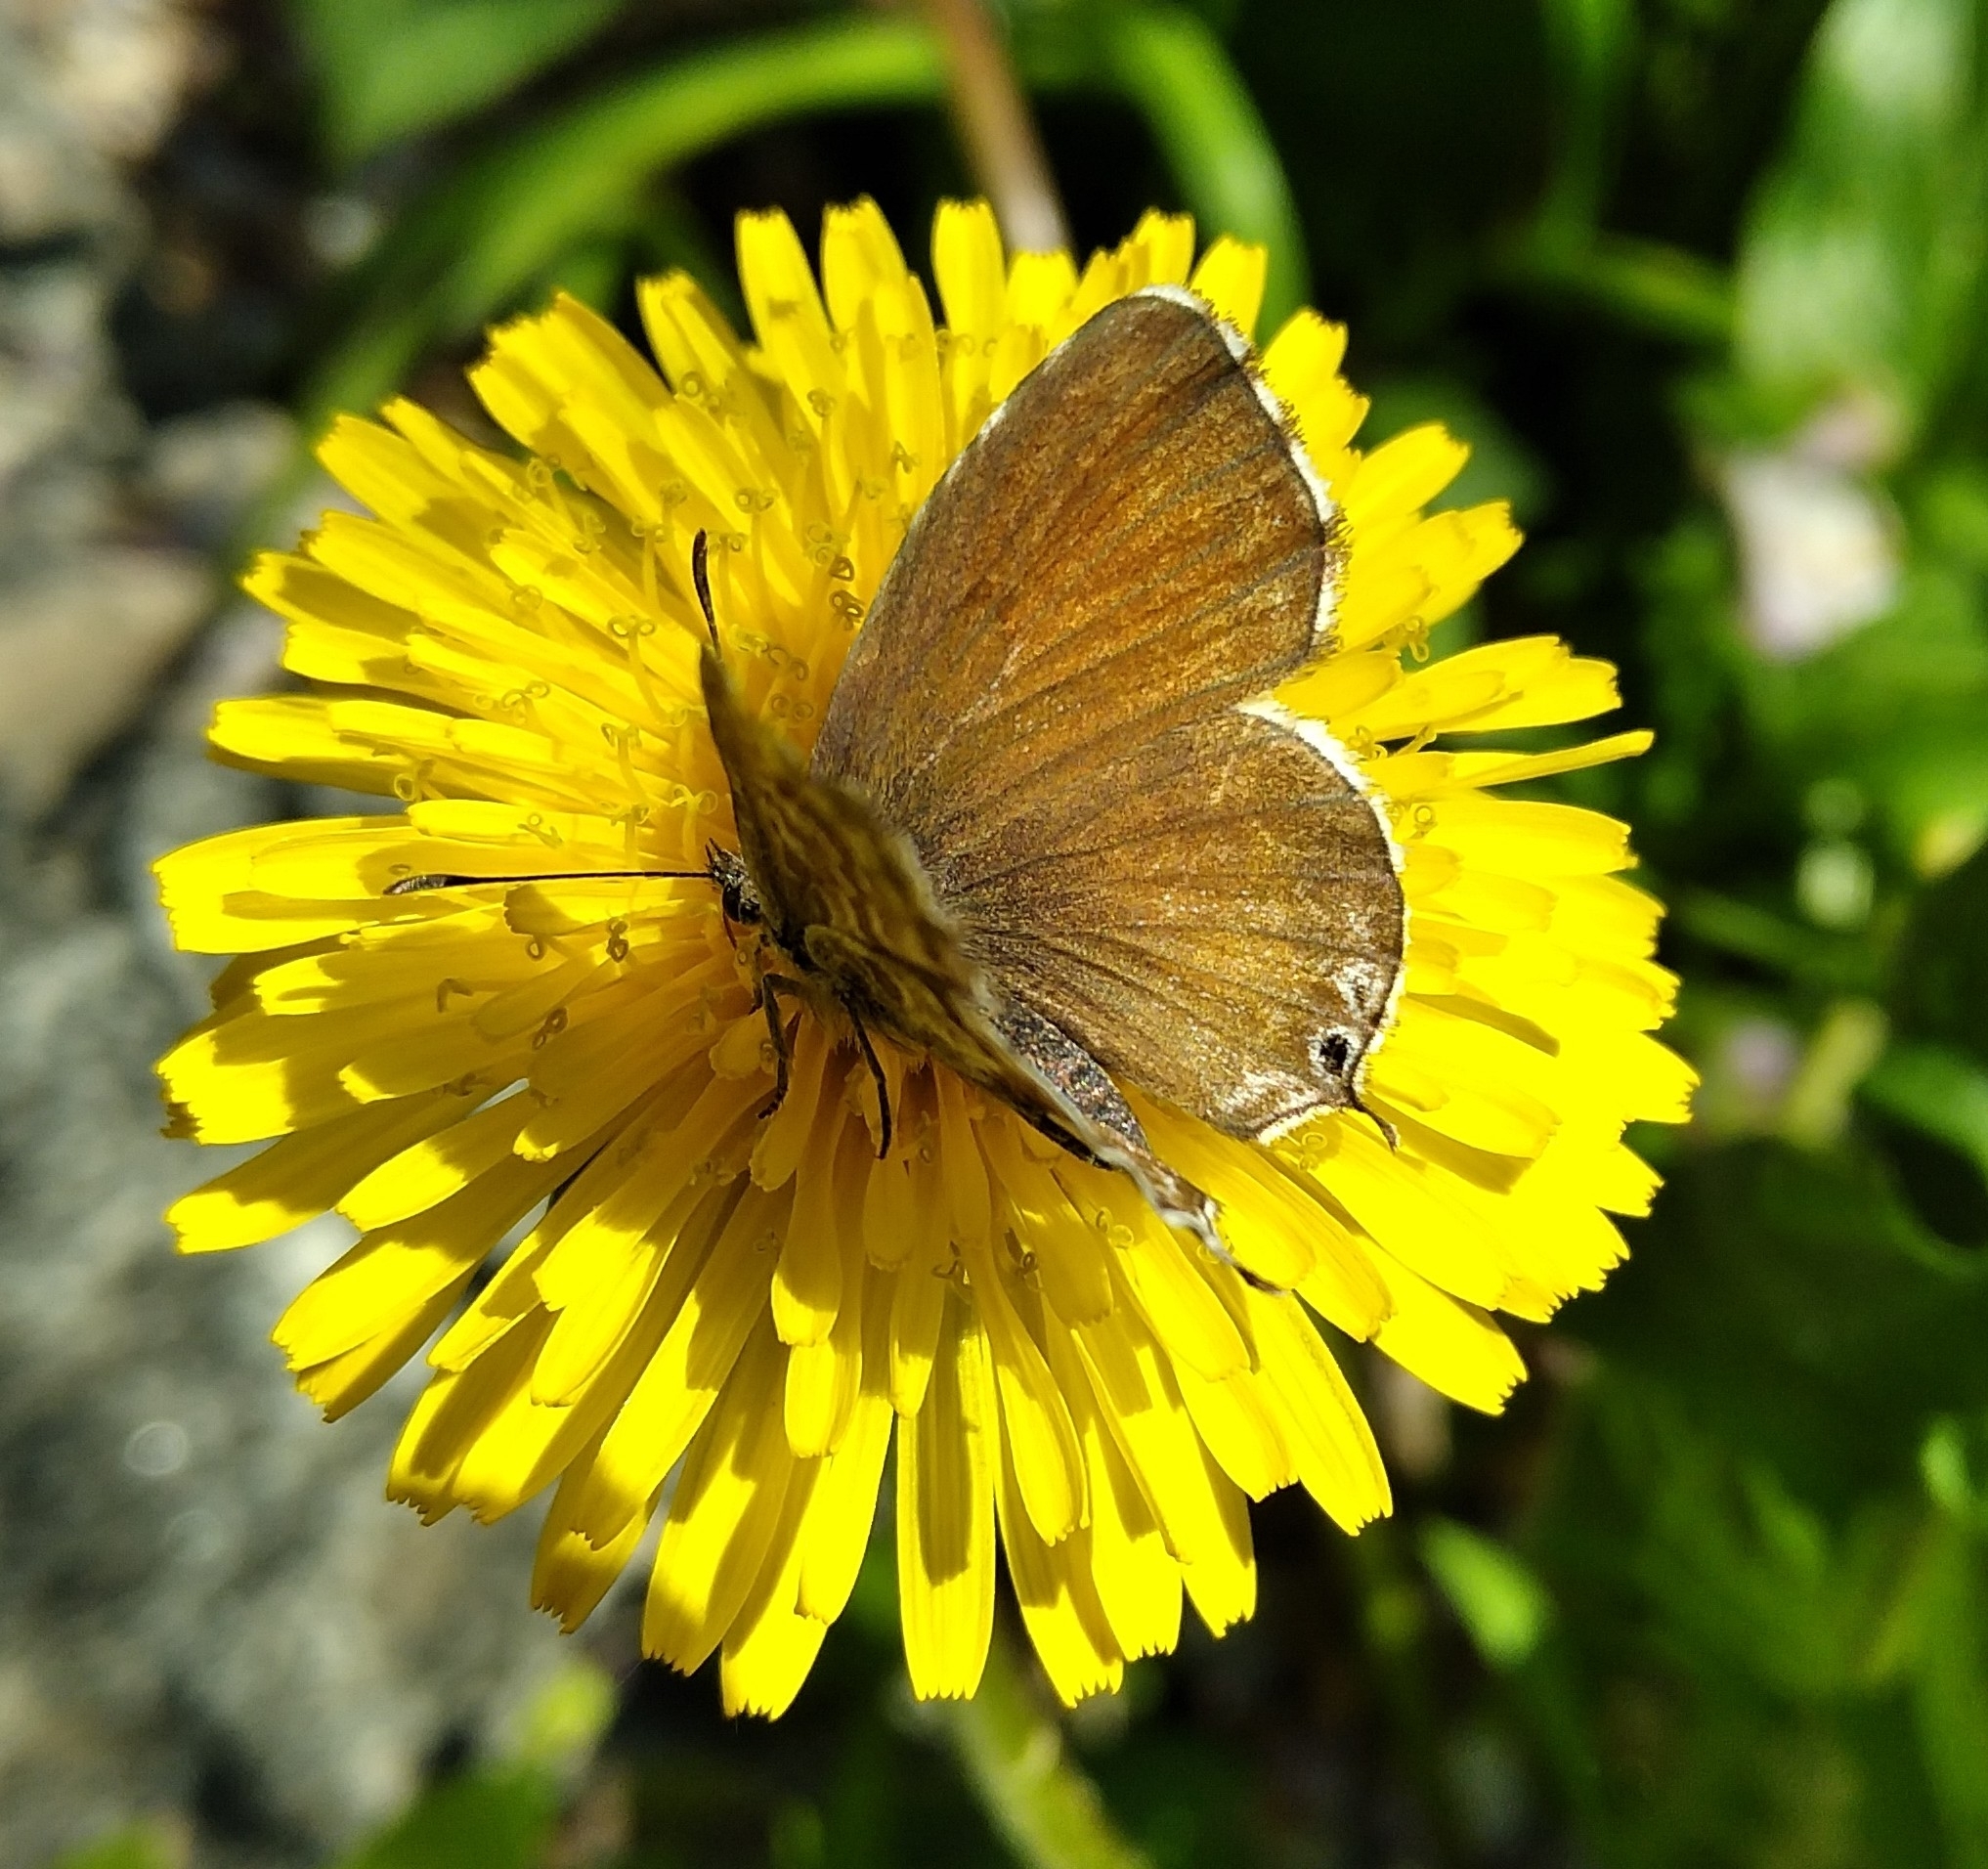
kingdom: Animalia
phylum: Arthropoda
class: Insecta
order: Lepidoptera
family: Lycaenidae
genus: Cacyreus
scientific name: Cacyreus marshalli
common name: Geranium bronze
